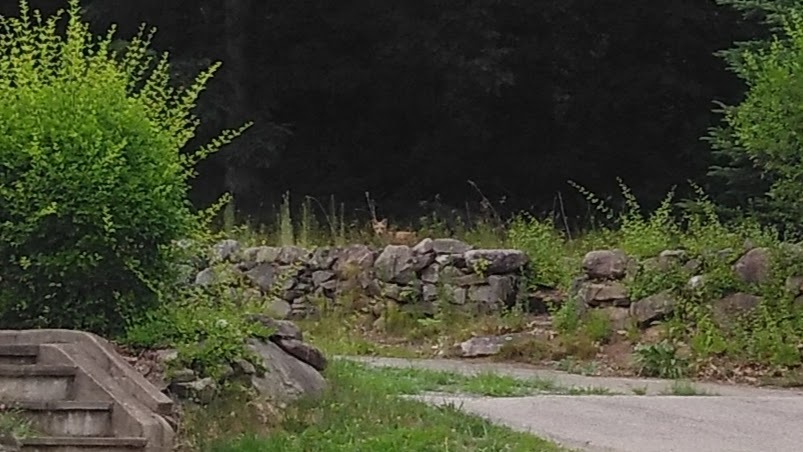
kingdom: Animalia
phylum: Chordata
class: Mammalia
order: Carnivora
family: Canidae
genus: Vulpes
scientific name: Vulpes vulpes
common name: Red fox
